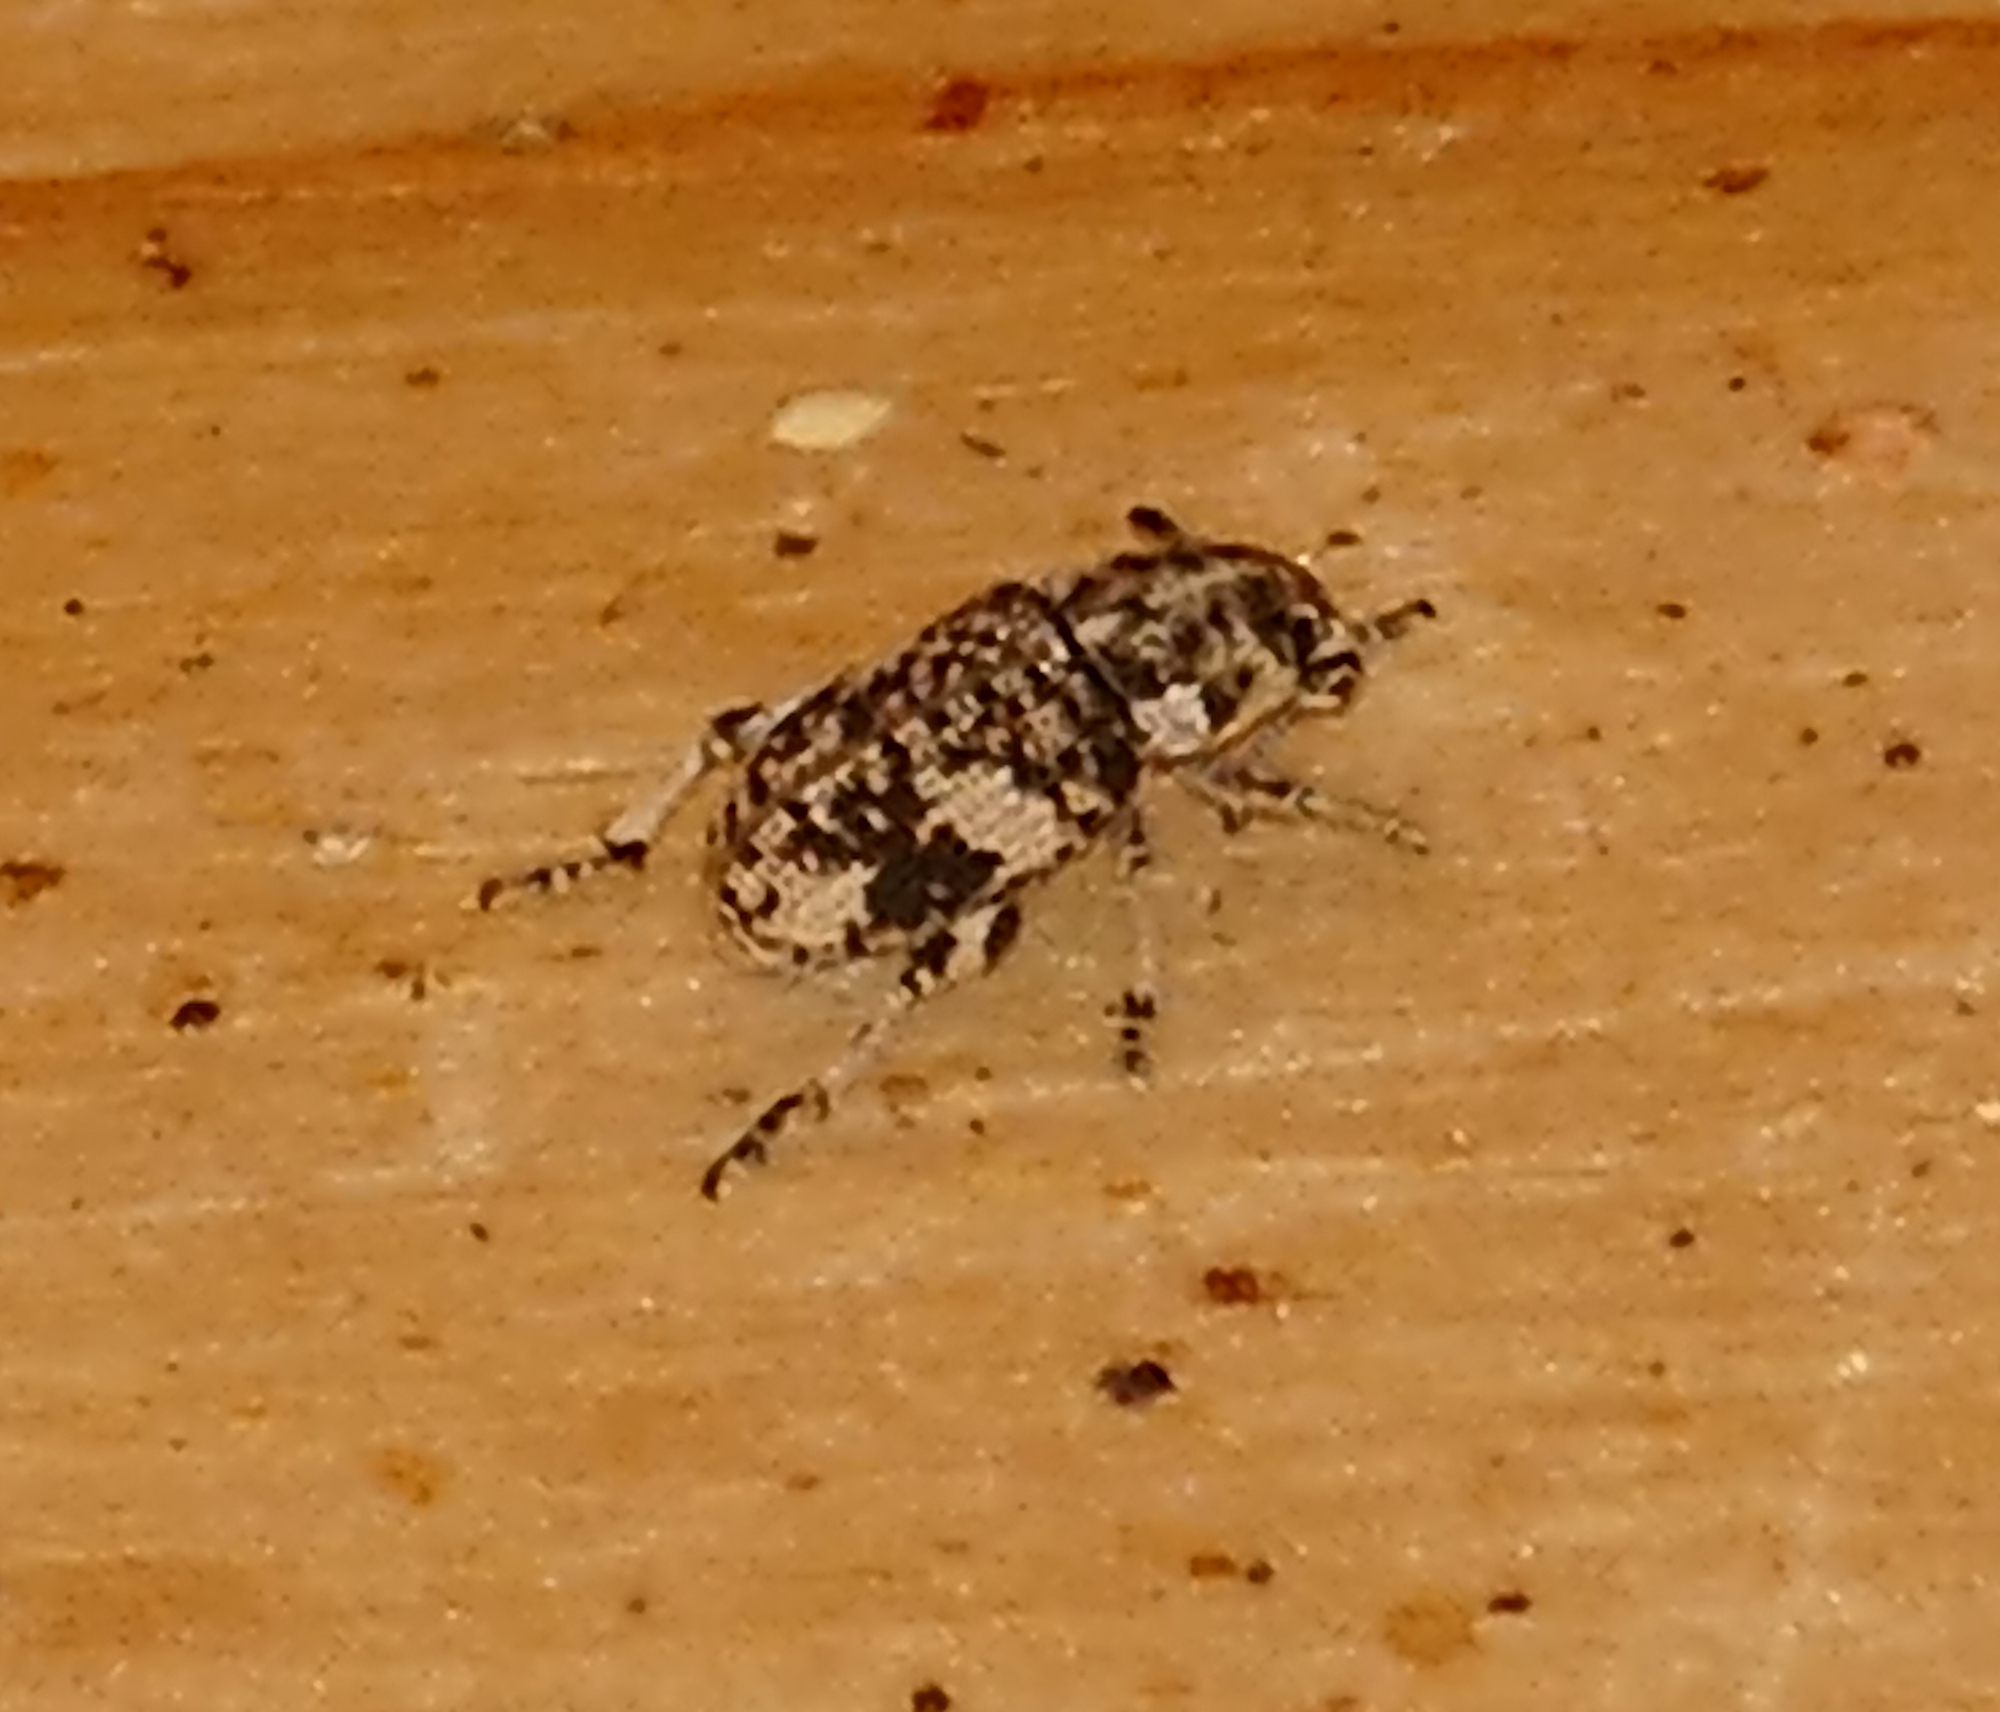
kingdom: Animalia
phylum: Arthropoda
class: Insecta
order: Coleoptera
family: Curculionidae
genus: Colecerus
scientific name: Colecerus dispar
